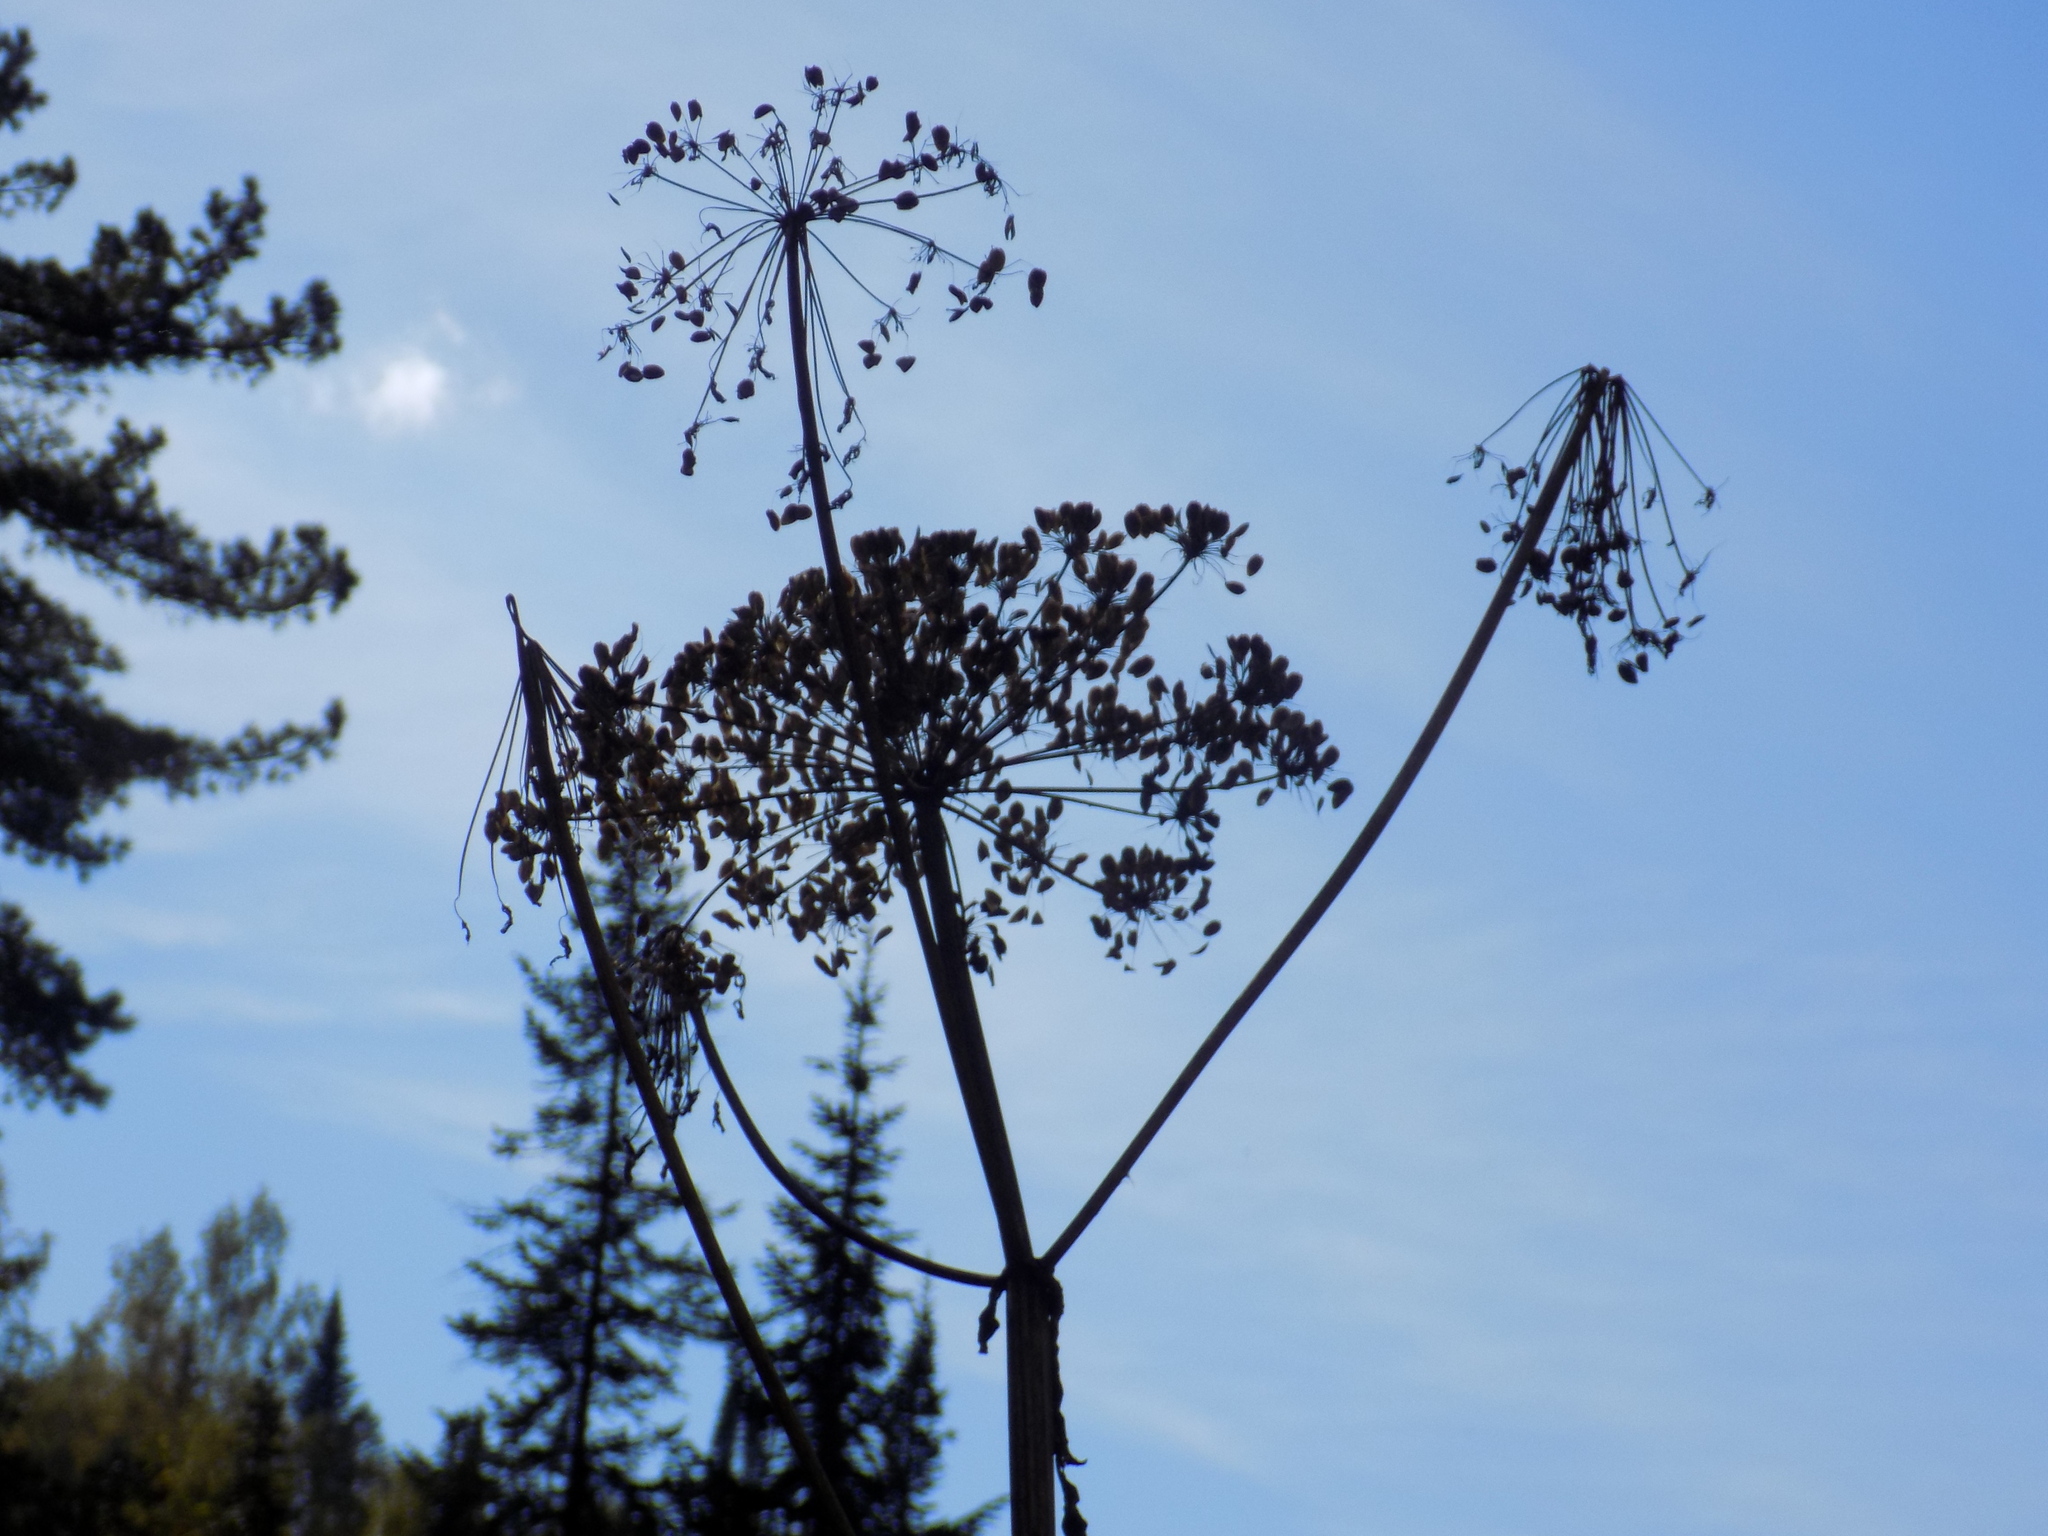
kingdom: Plantae
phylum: Tracheophyta
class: Magnoliopsida
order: Apiales
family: Apiaceae
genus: Angelica
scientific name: Angelica sylvestris
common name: Wild angelica
